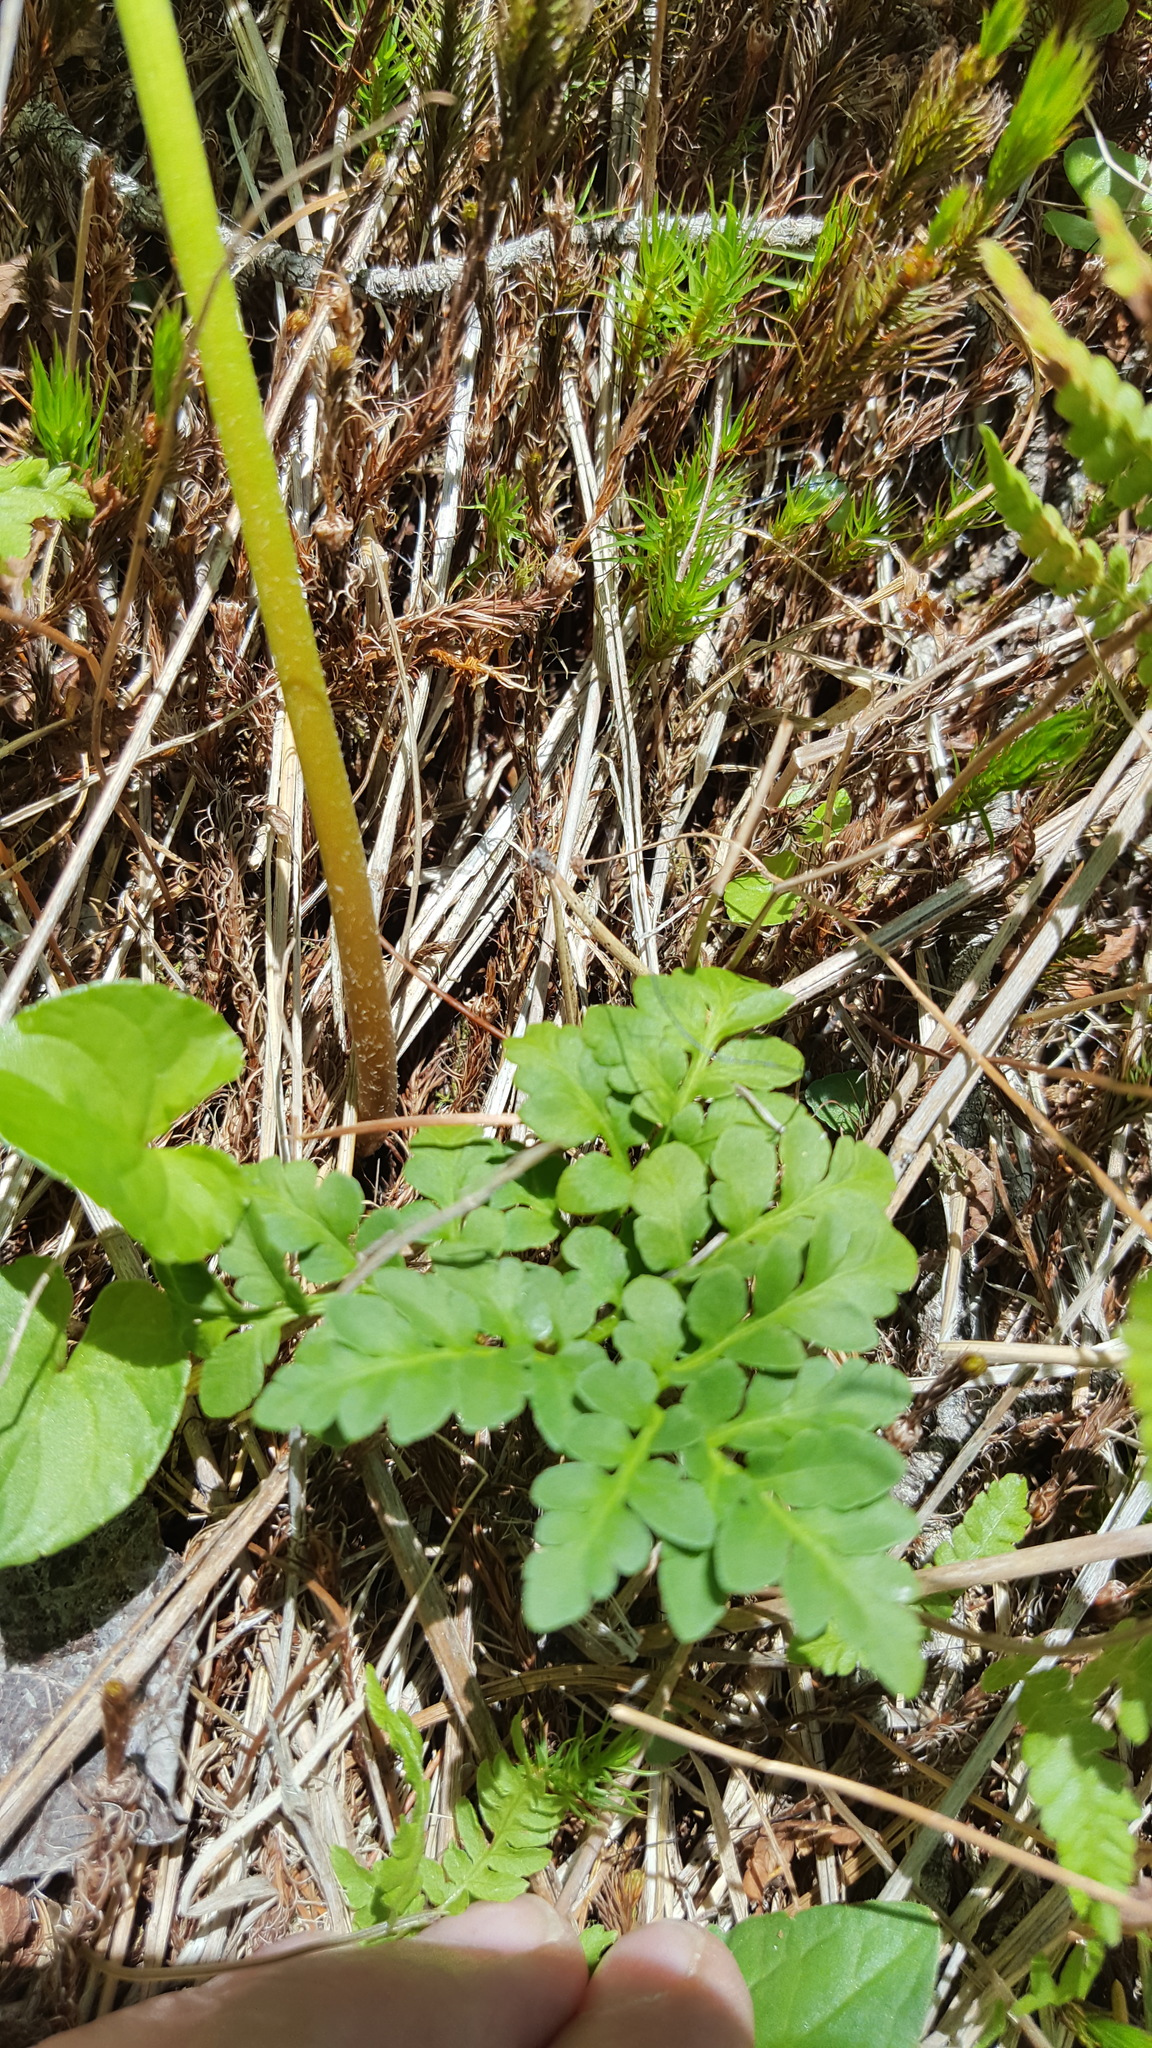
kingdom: Plantae
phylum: Tracheophyta
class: Polypodiopsida
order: Ophioglossales
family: Ophioglossaceae
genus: Sceptridium
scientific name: Sceptridium multifidum
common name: Leathery grape fern
